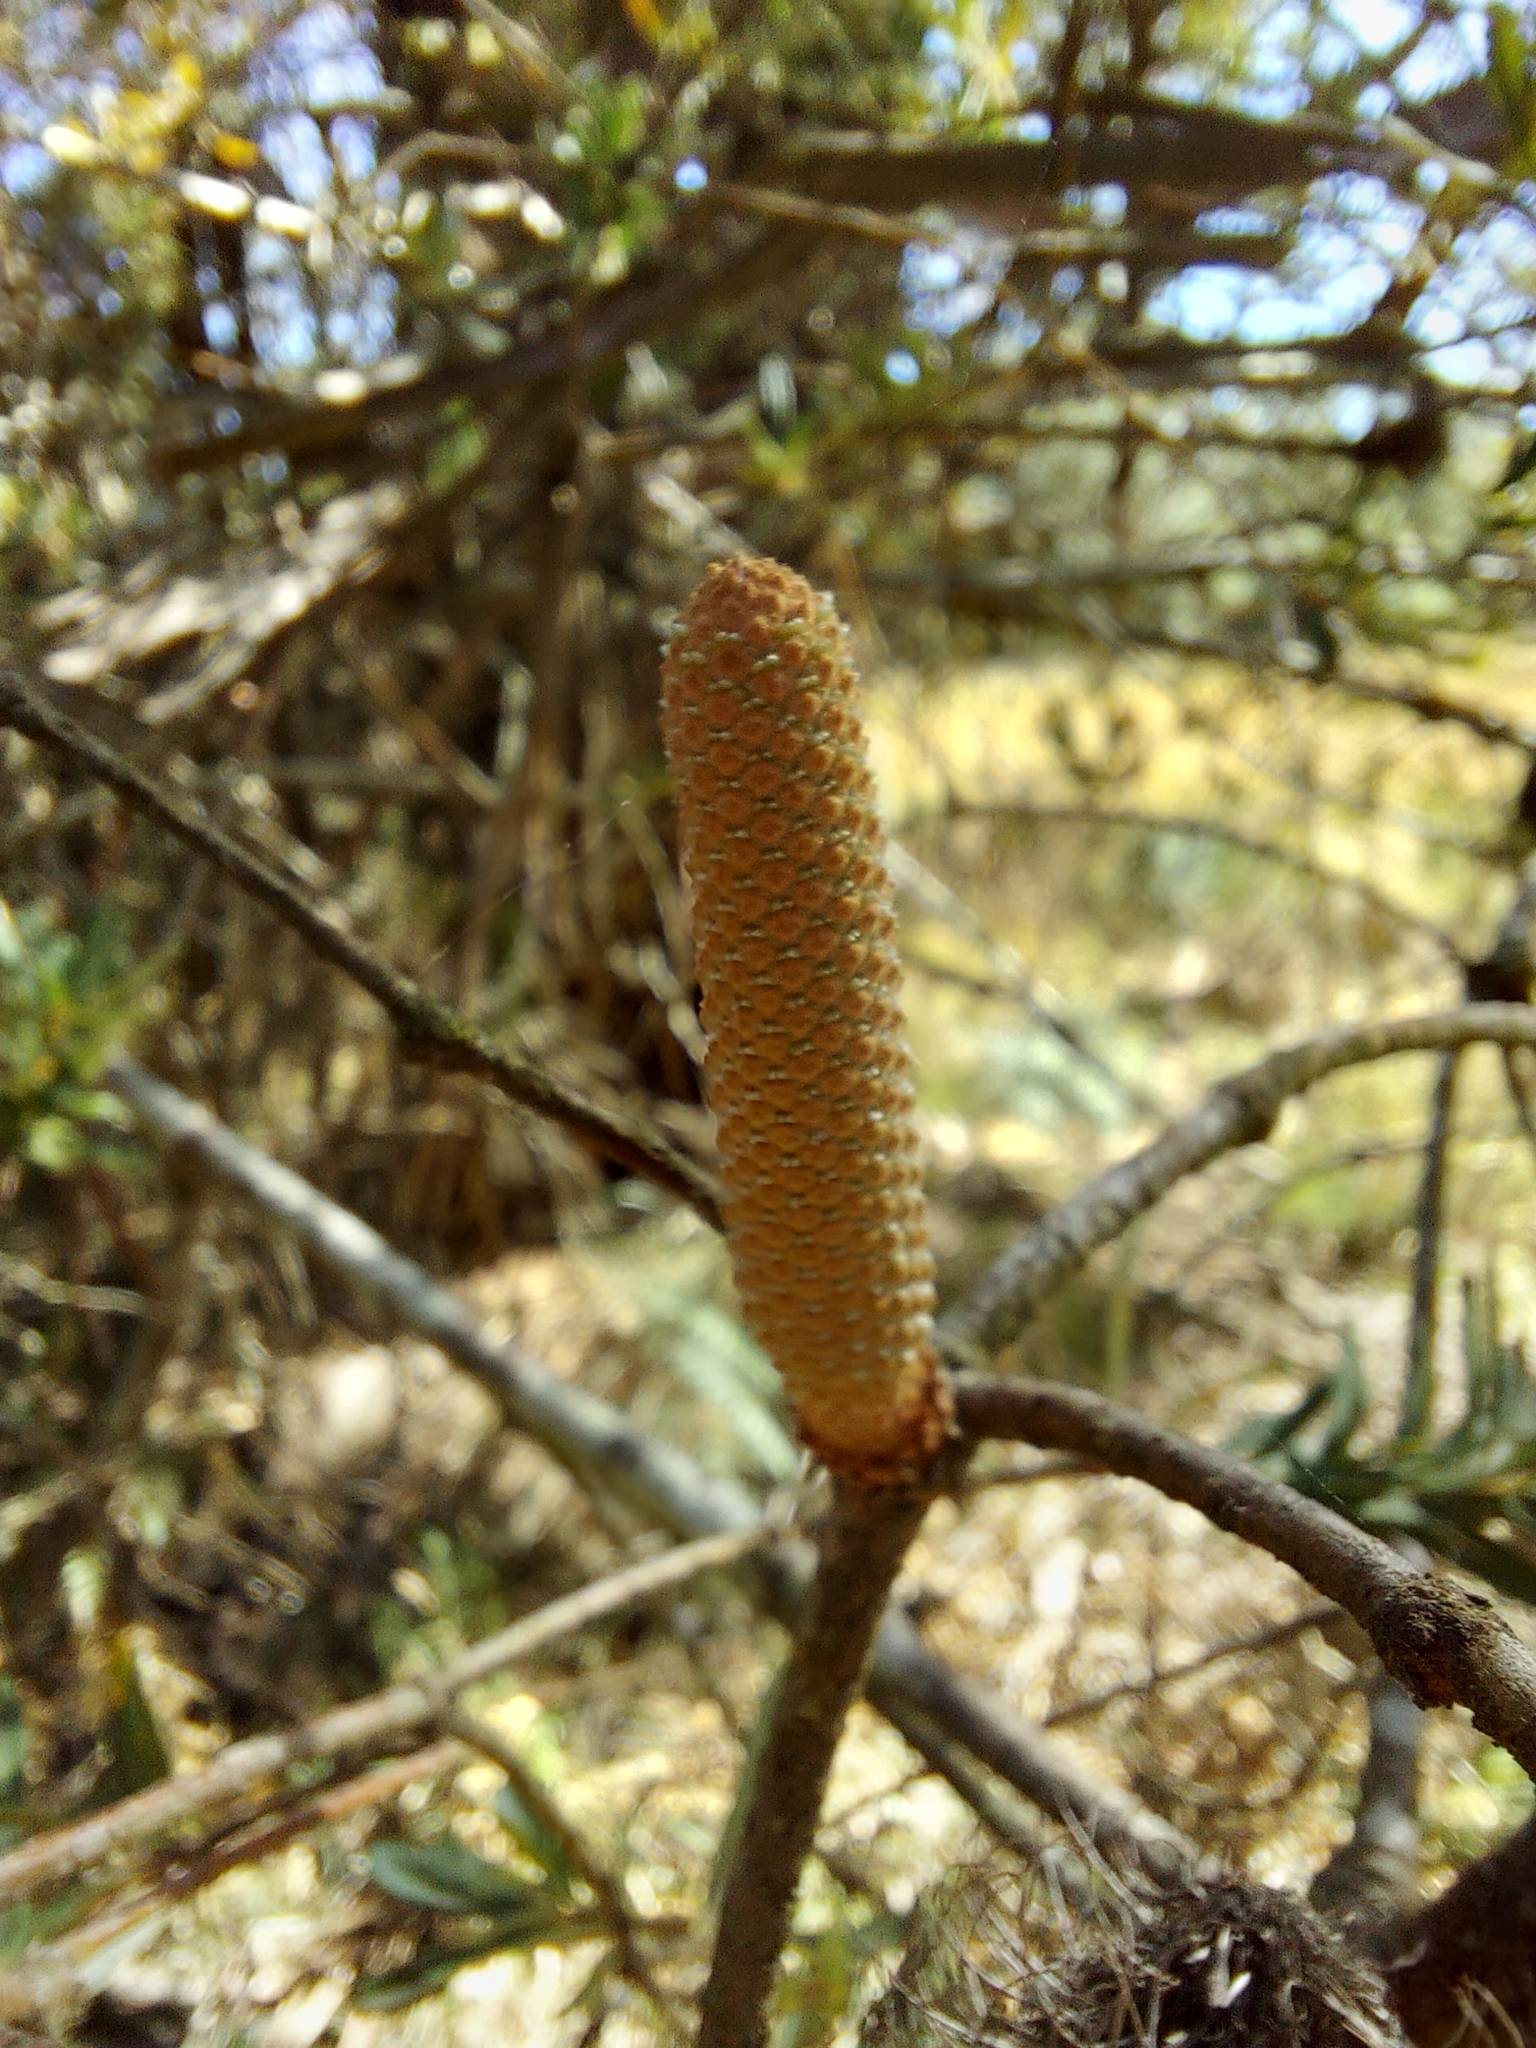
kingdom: Plantae
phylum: Tracheophyta
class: Magnoliopsida
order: Proteales
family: Proteaceae
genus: Banksia
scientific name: Banksia marginata
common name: Silver banksia
